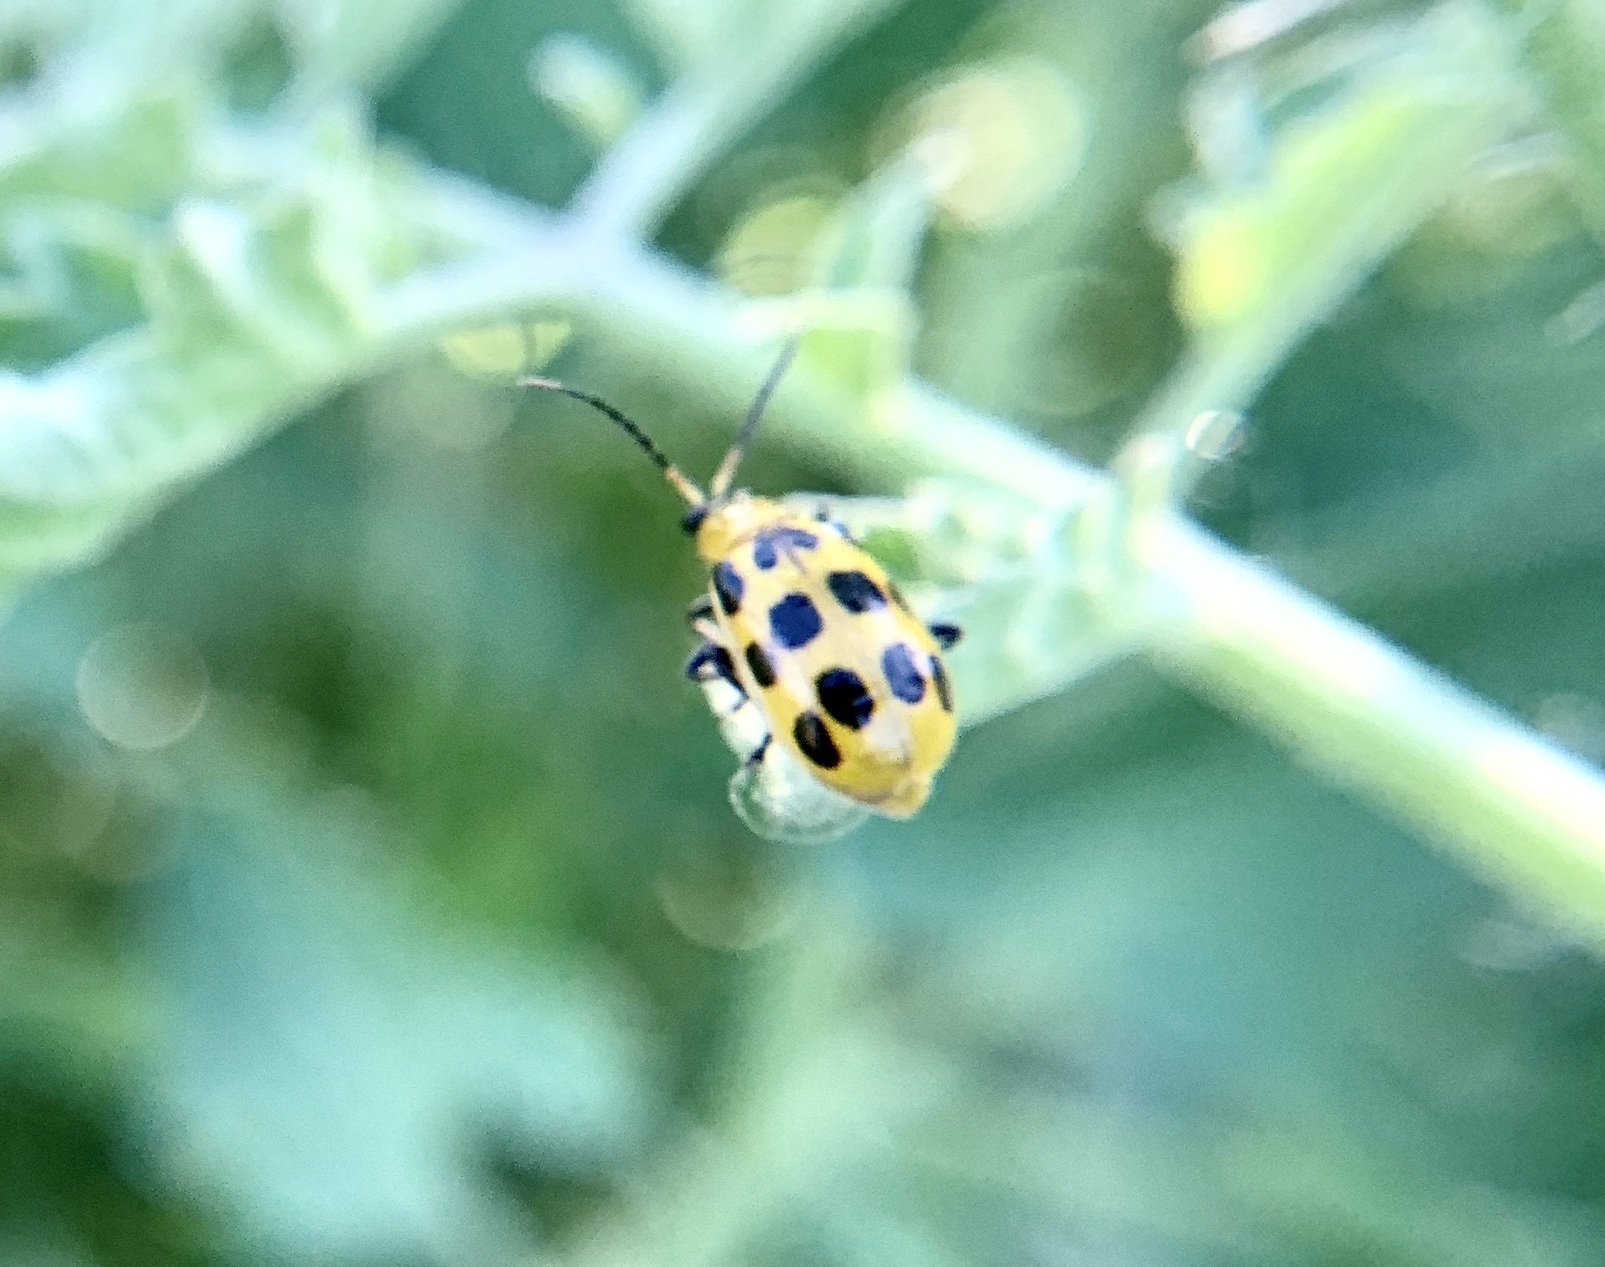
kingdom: Animalia
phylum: Arthropoda
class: Insecta
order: Coleoptera
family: Chrysomelidae
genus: Diabrotica
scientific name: Diabrotica undecimpunctata
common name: Spotted cucumber beetle
